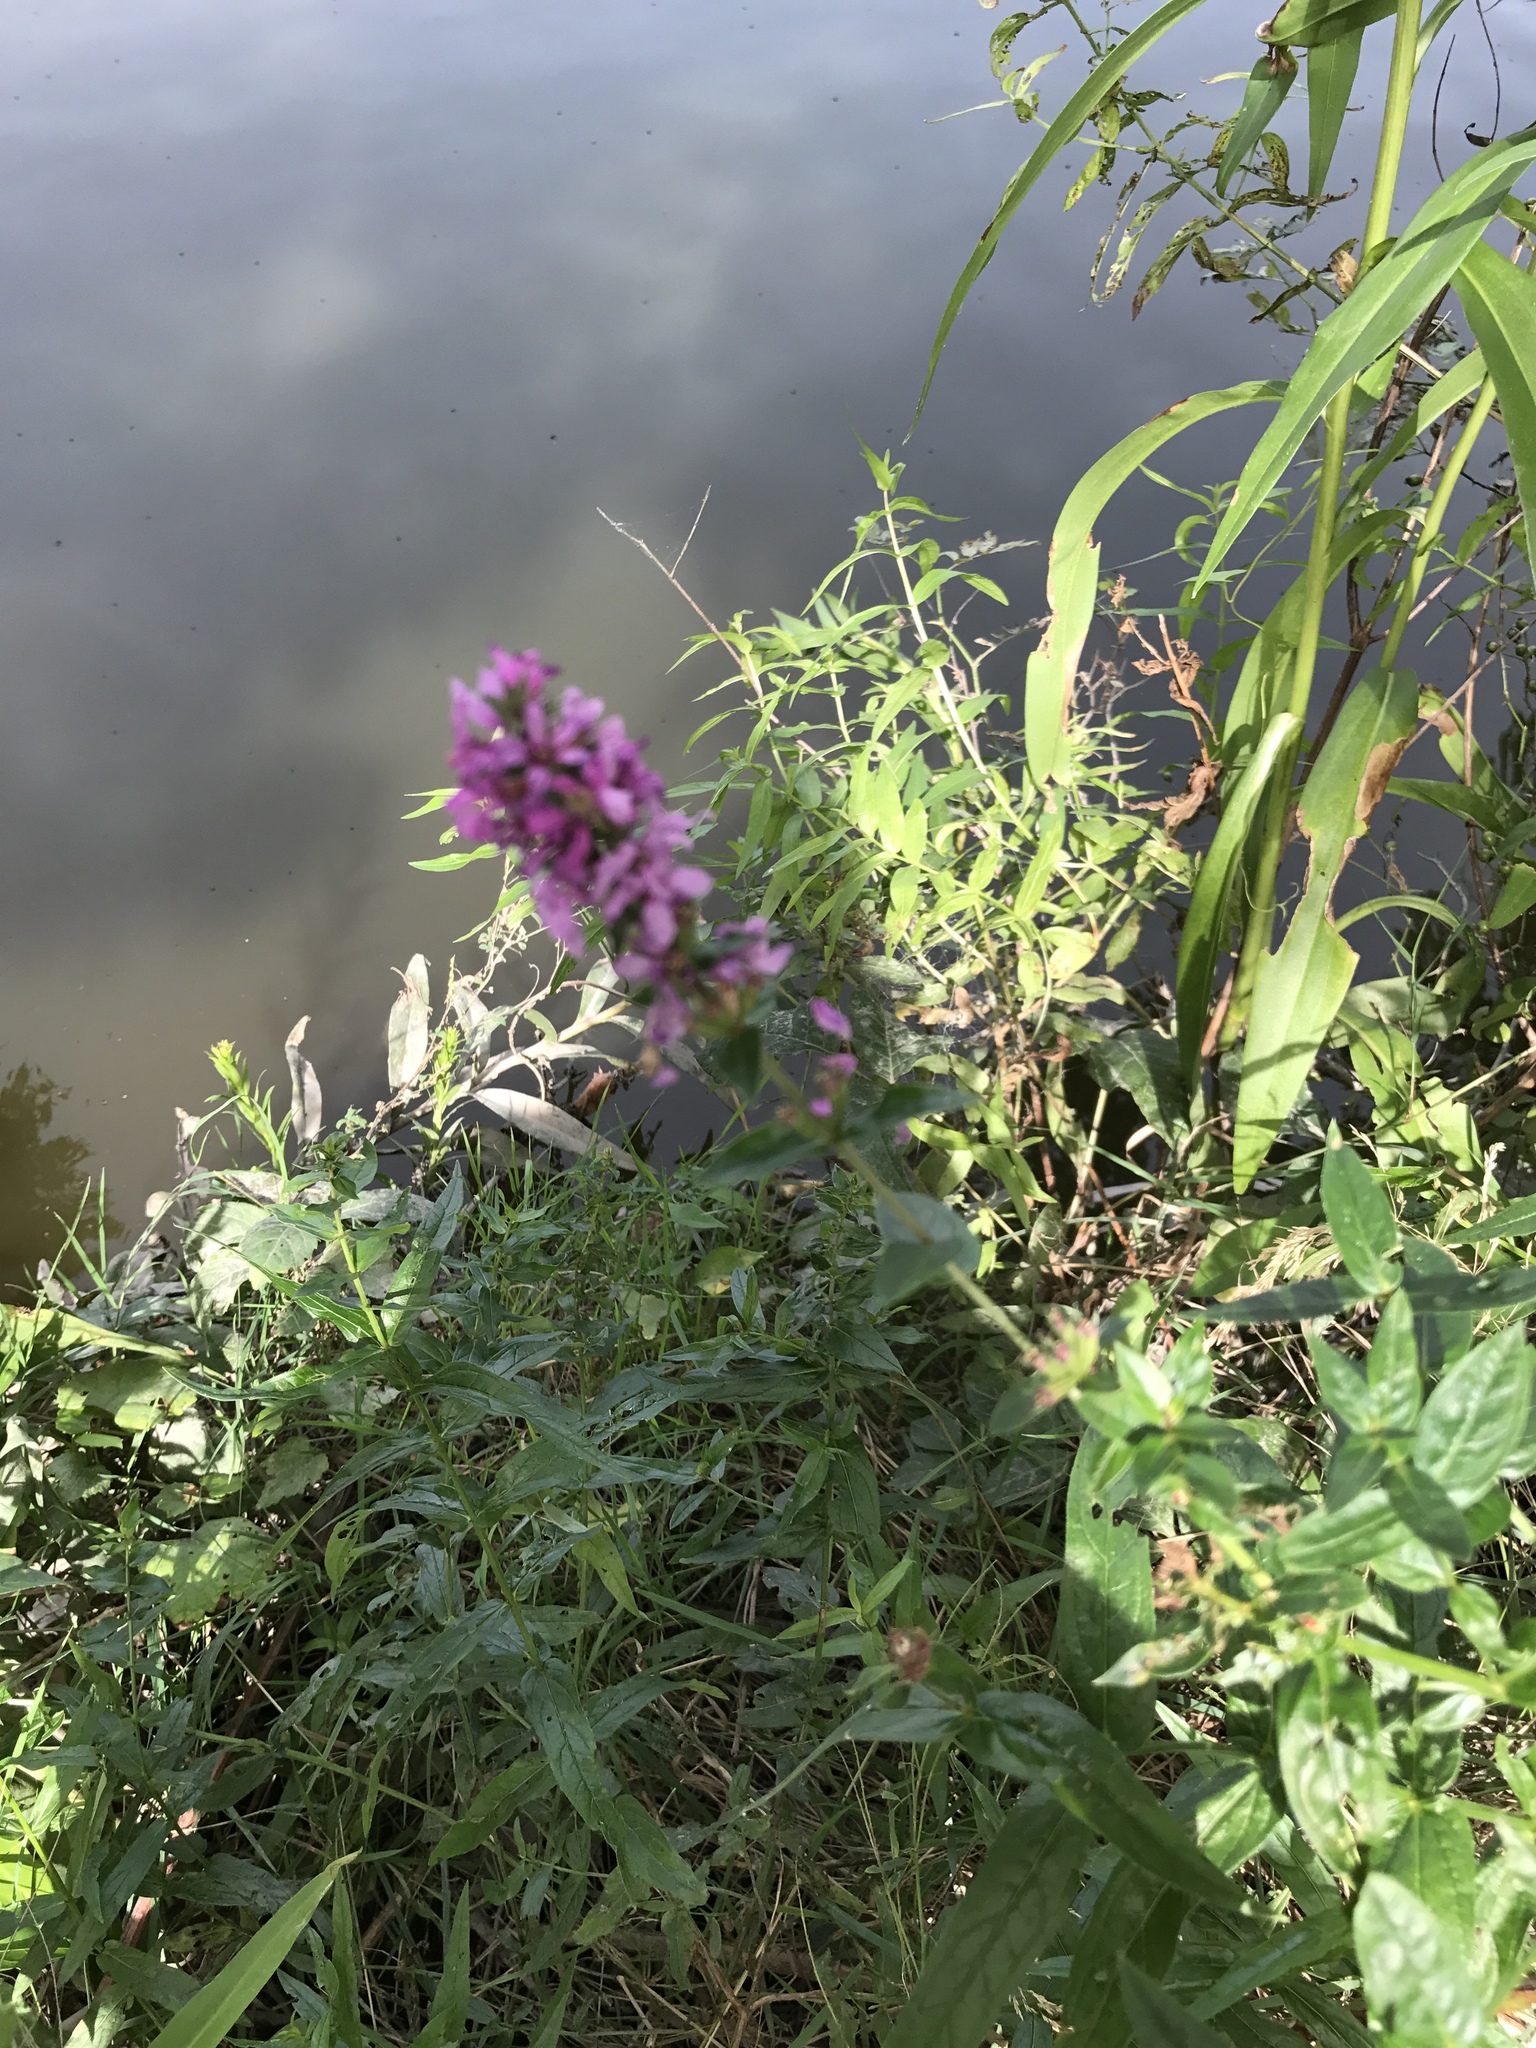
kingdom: Plantae
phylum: Tracheophyta
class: Magnoliopsida
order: Myrtales
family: Lythraceae
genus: Lythrum
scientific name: Lythrum salicaria
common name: Purple loosestrife
